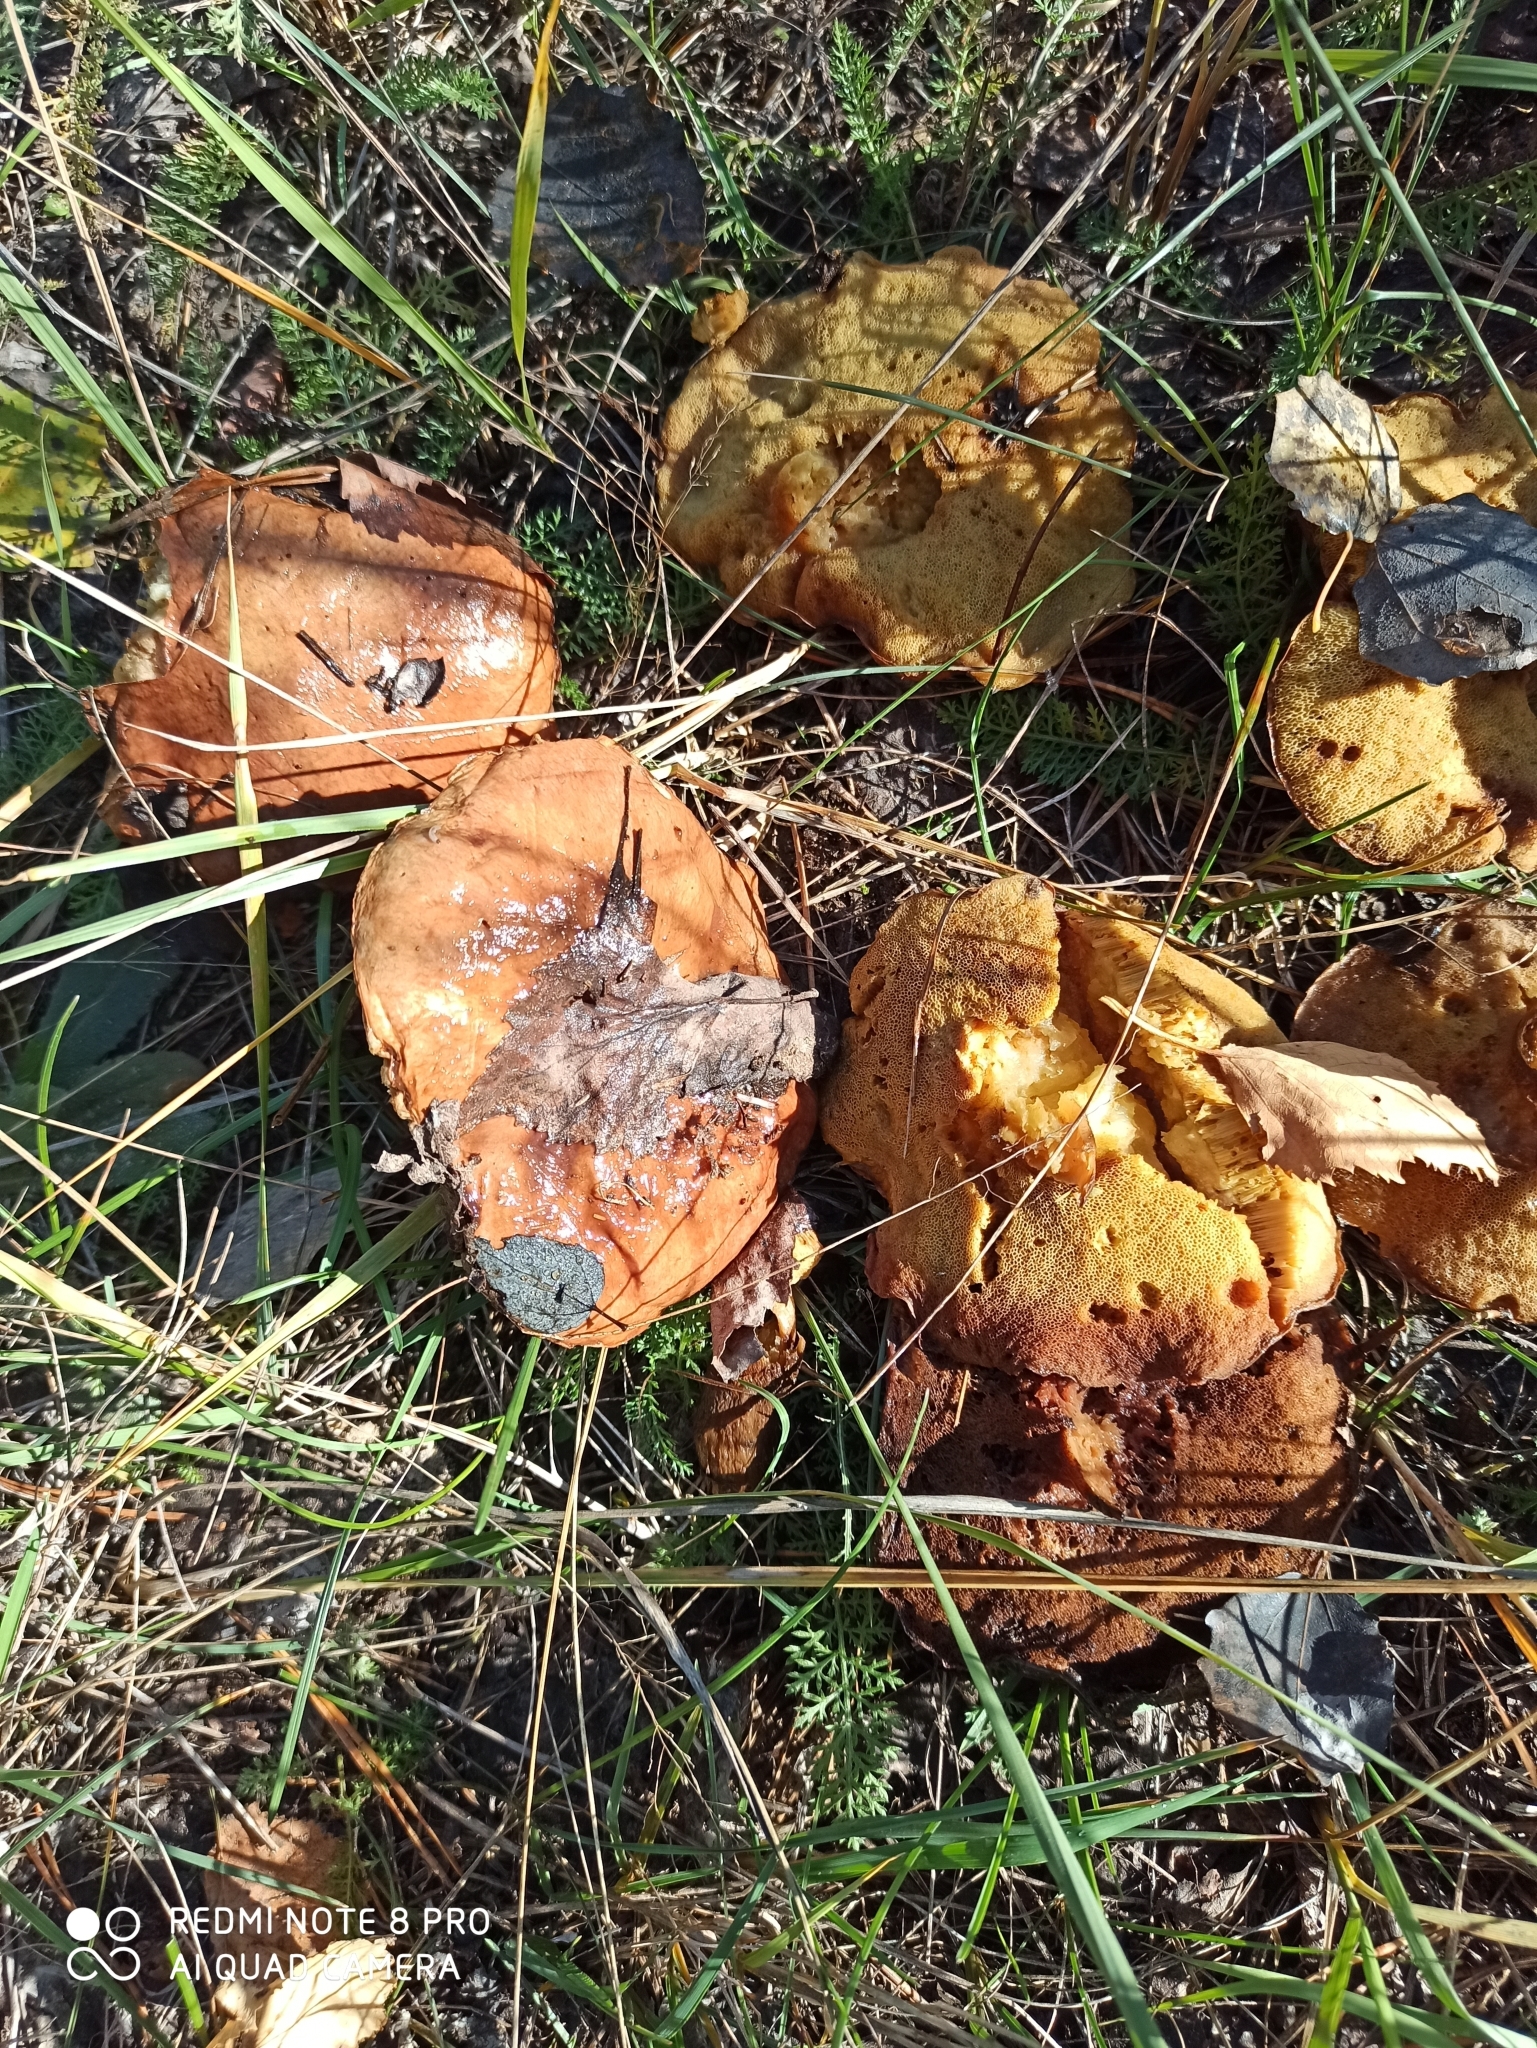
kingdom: Fungi
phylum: Basidiomycota
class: Agaricomycetes
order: Boletales
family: Suillaceae
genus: Suillus
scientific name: Suillus luteus
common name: Slippery jack
